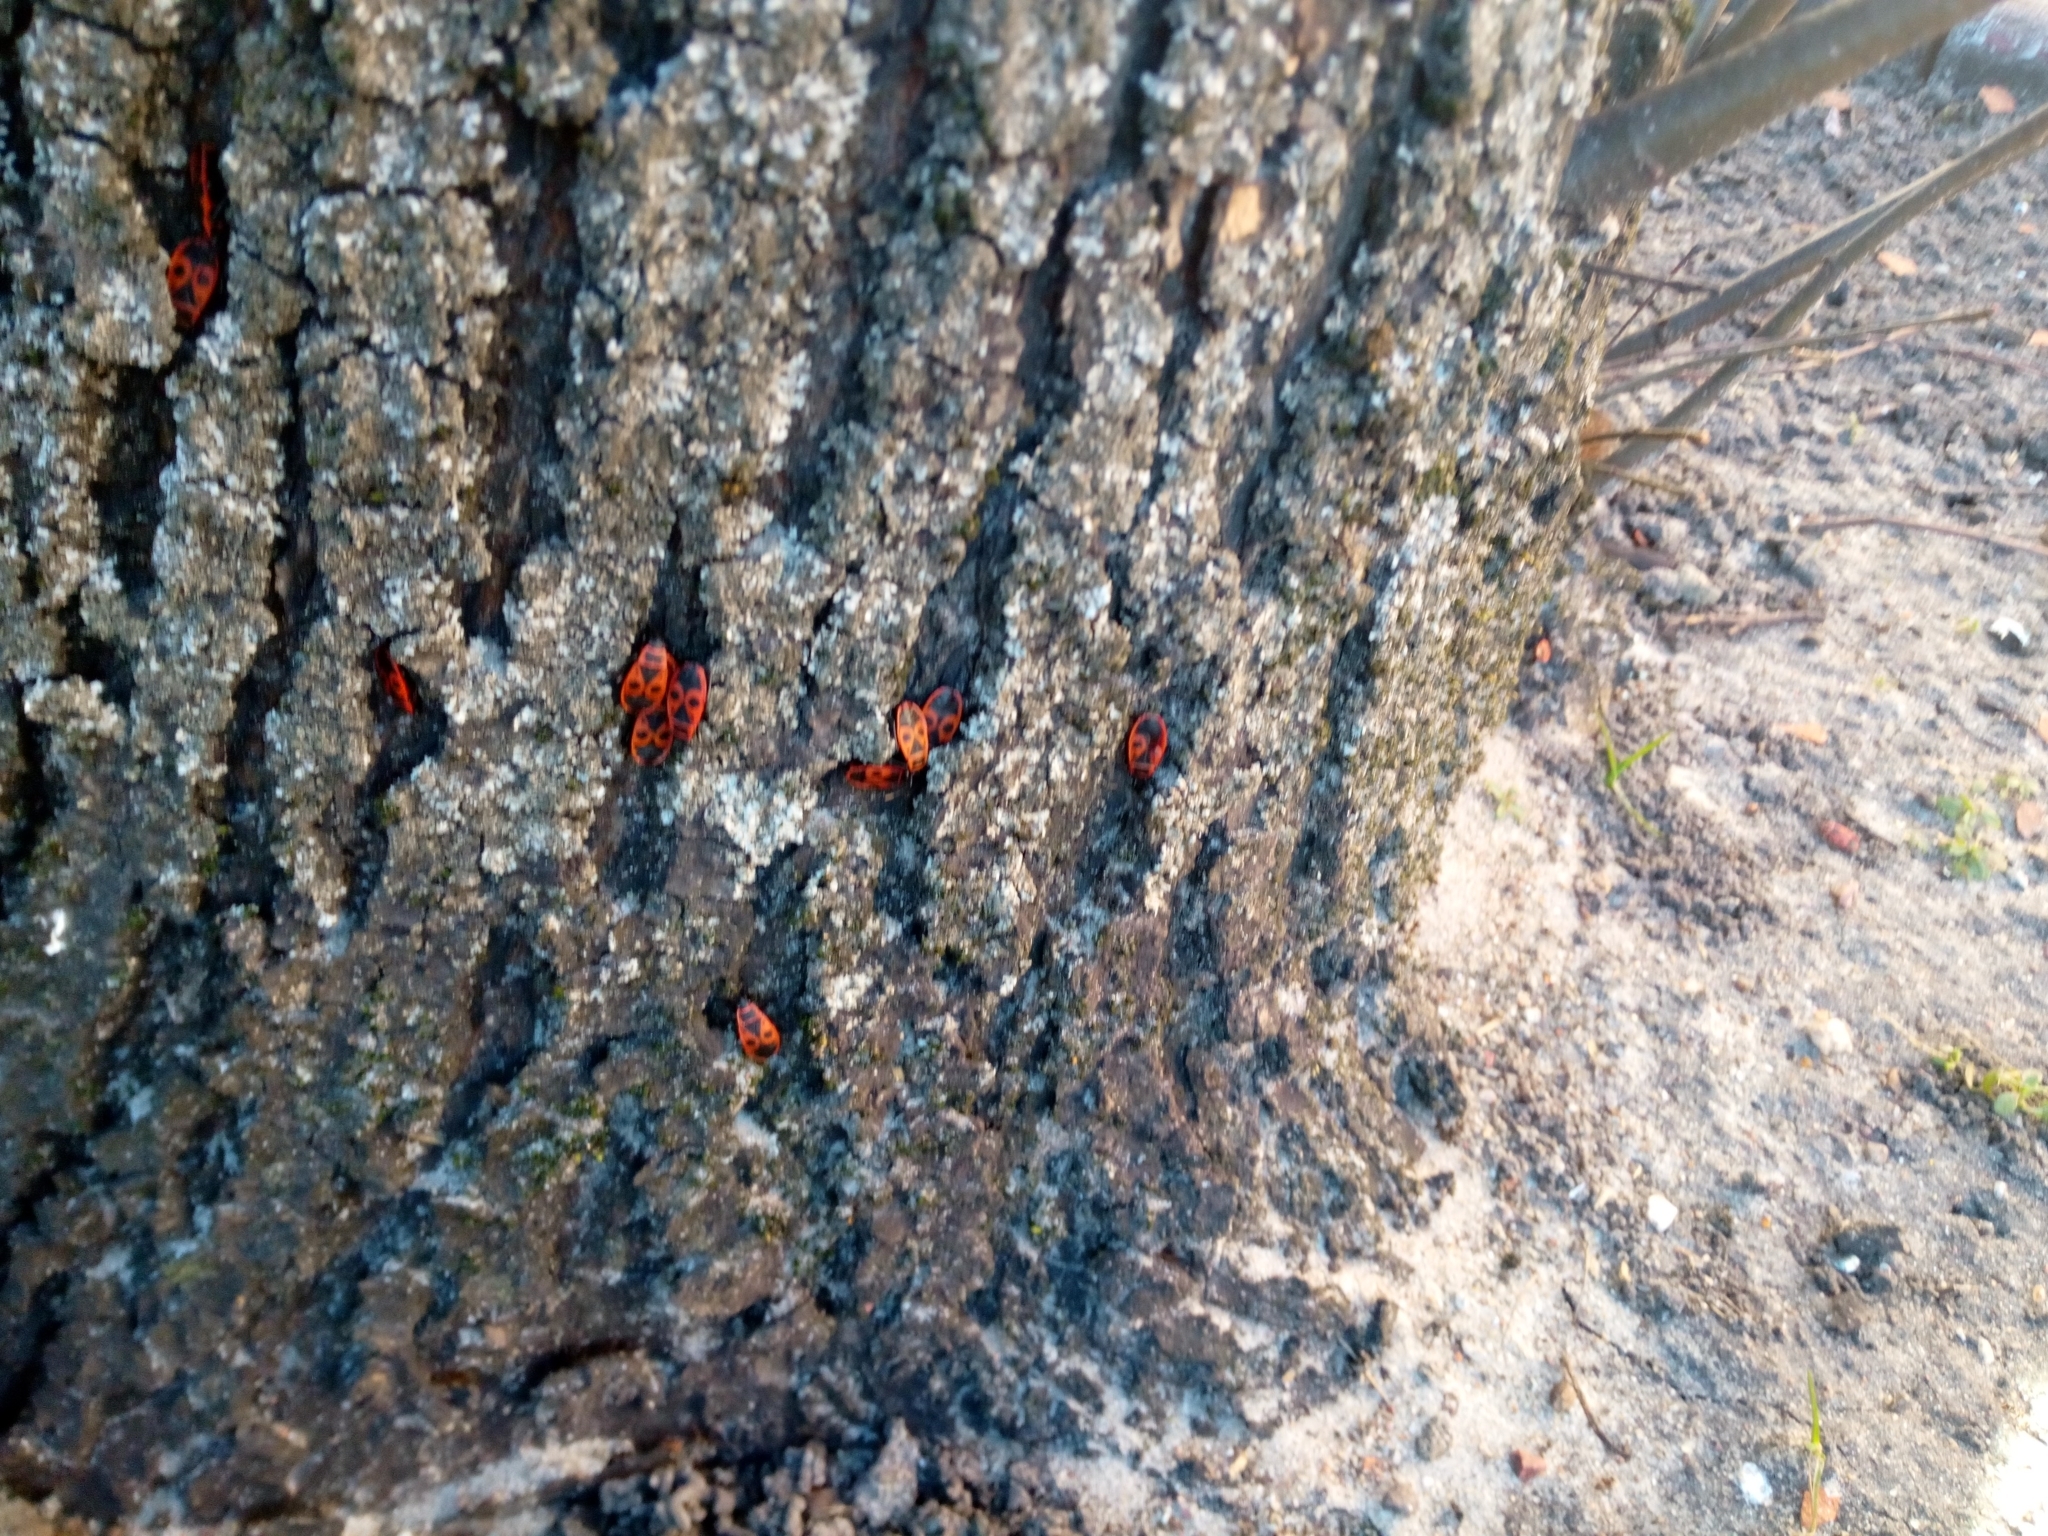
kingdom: Animalia
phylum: Arthropoda
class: Insecta
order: Hemiptera
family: Pyrrhocoridae
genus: Pyrrhocoris
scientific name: Pyrrhocoris apterus
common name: Firebug
